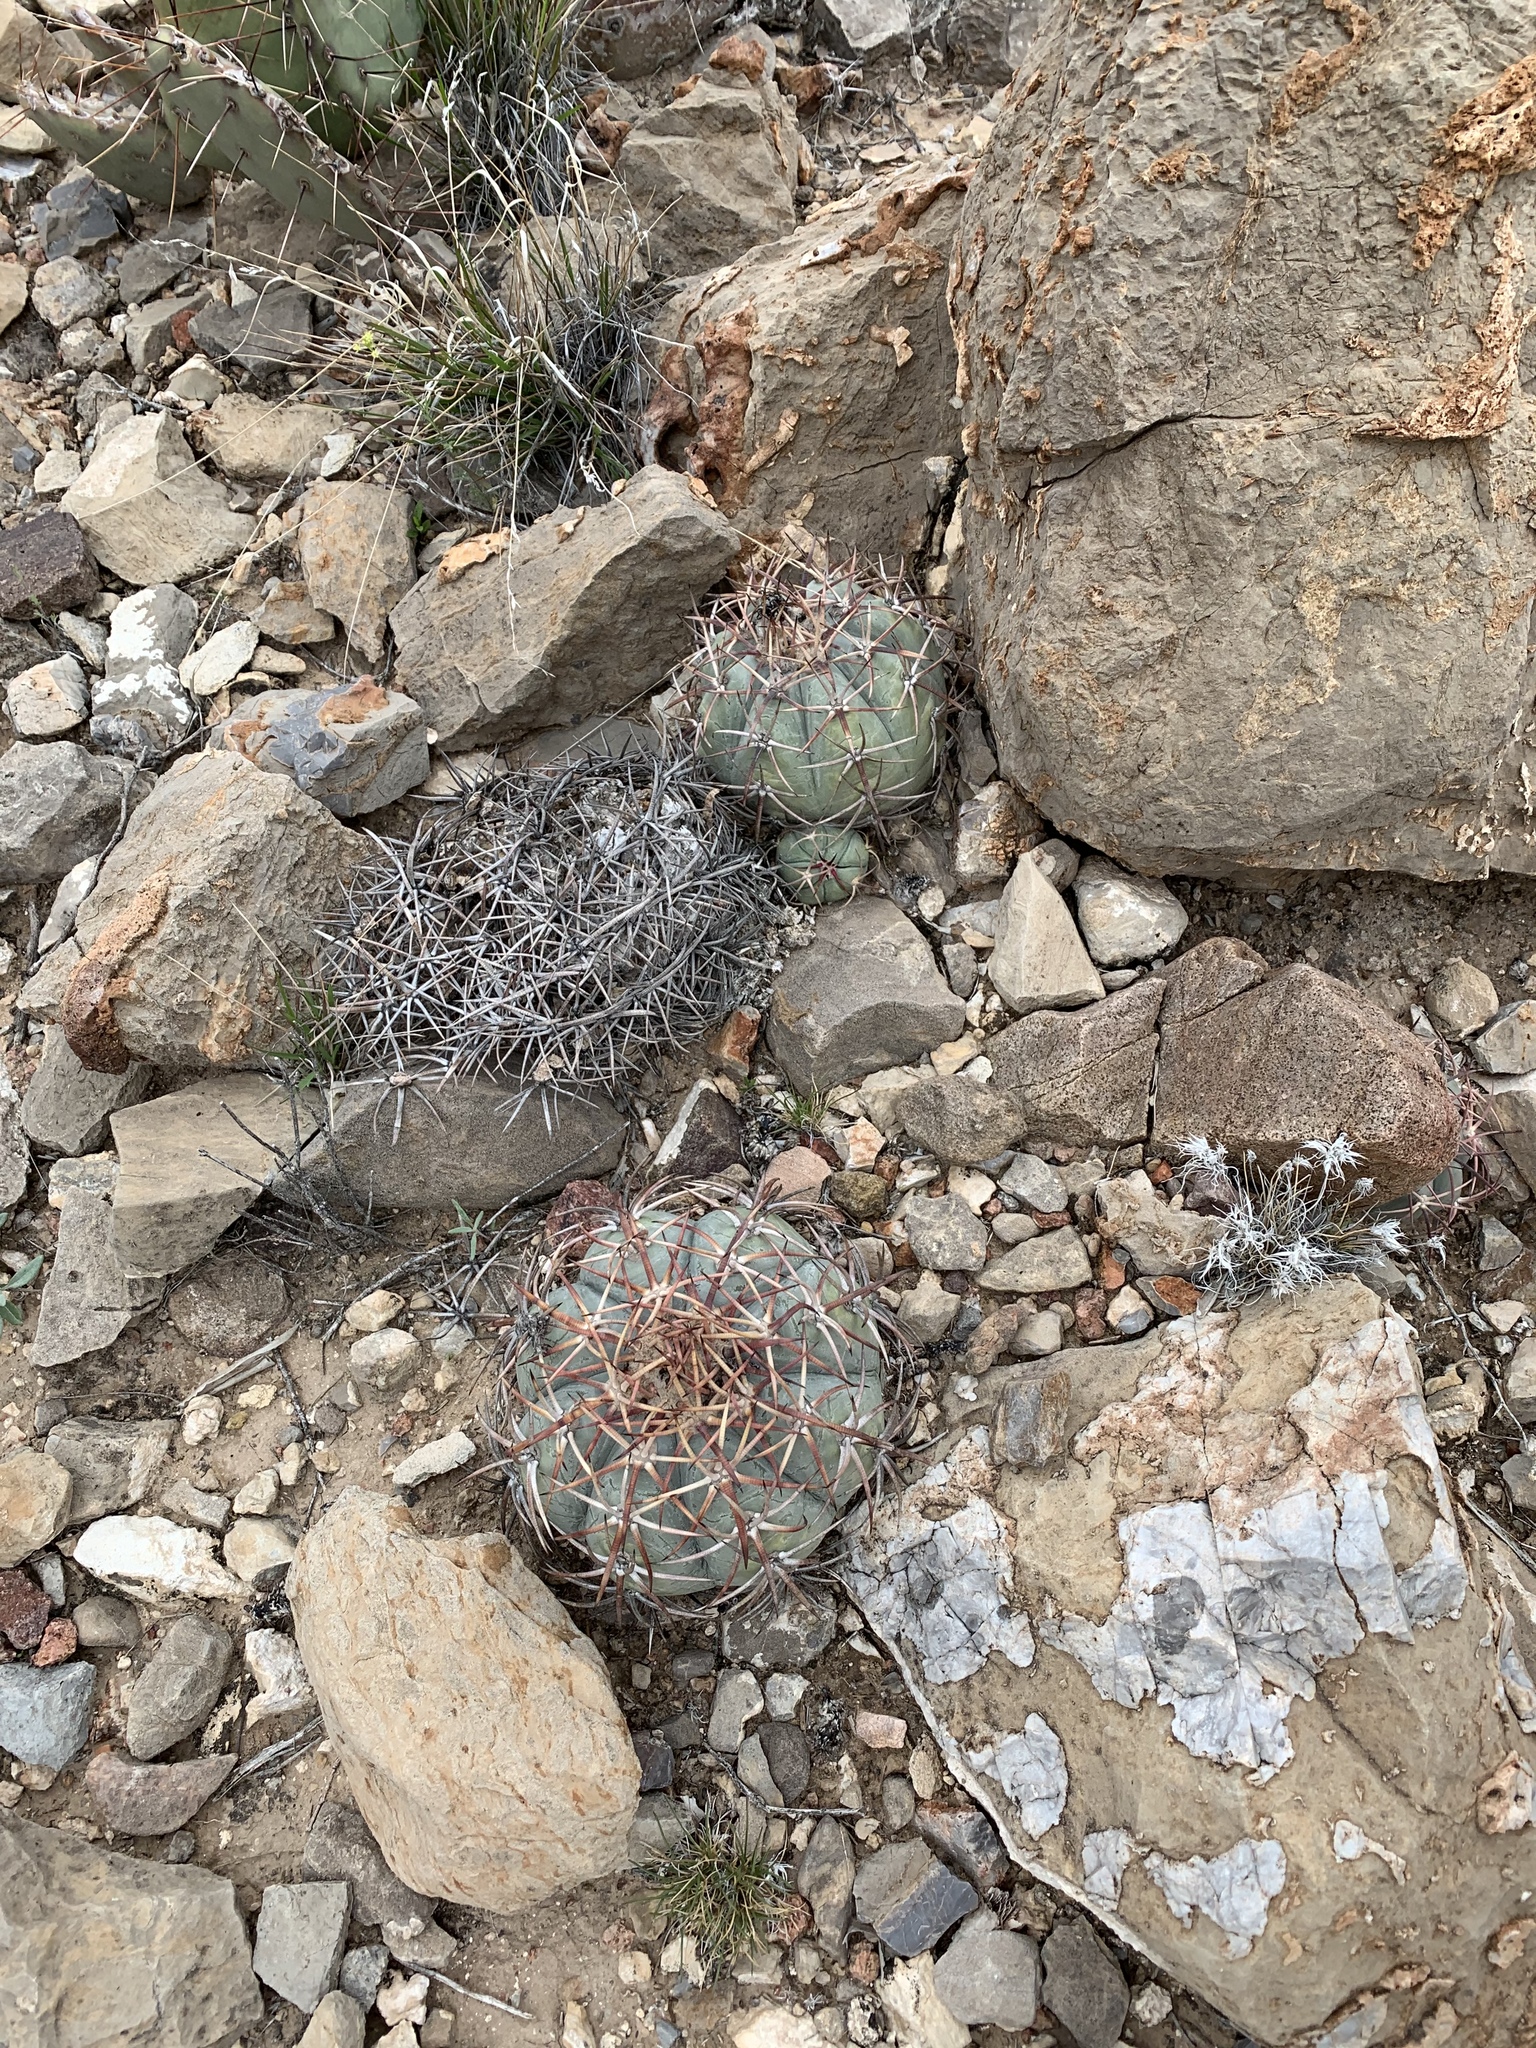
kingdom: Plantae
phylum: Tracheophyta
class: Magnoliopsida
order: Caryophyllales
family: Cactaceae
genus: Echinocactus
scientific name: Echinocactus horizonthalonius
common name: Devilshead
